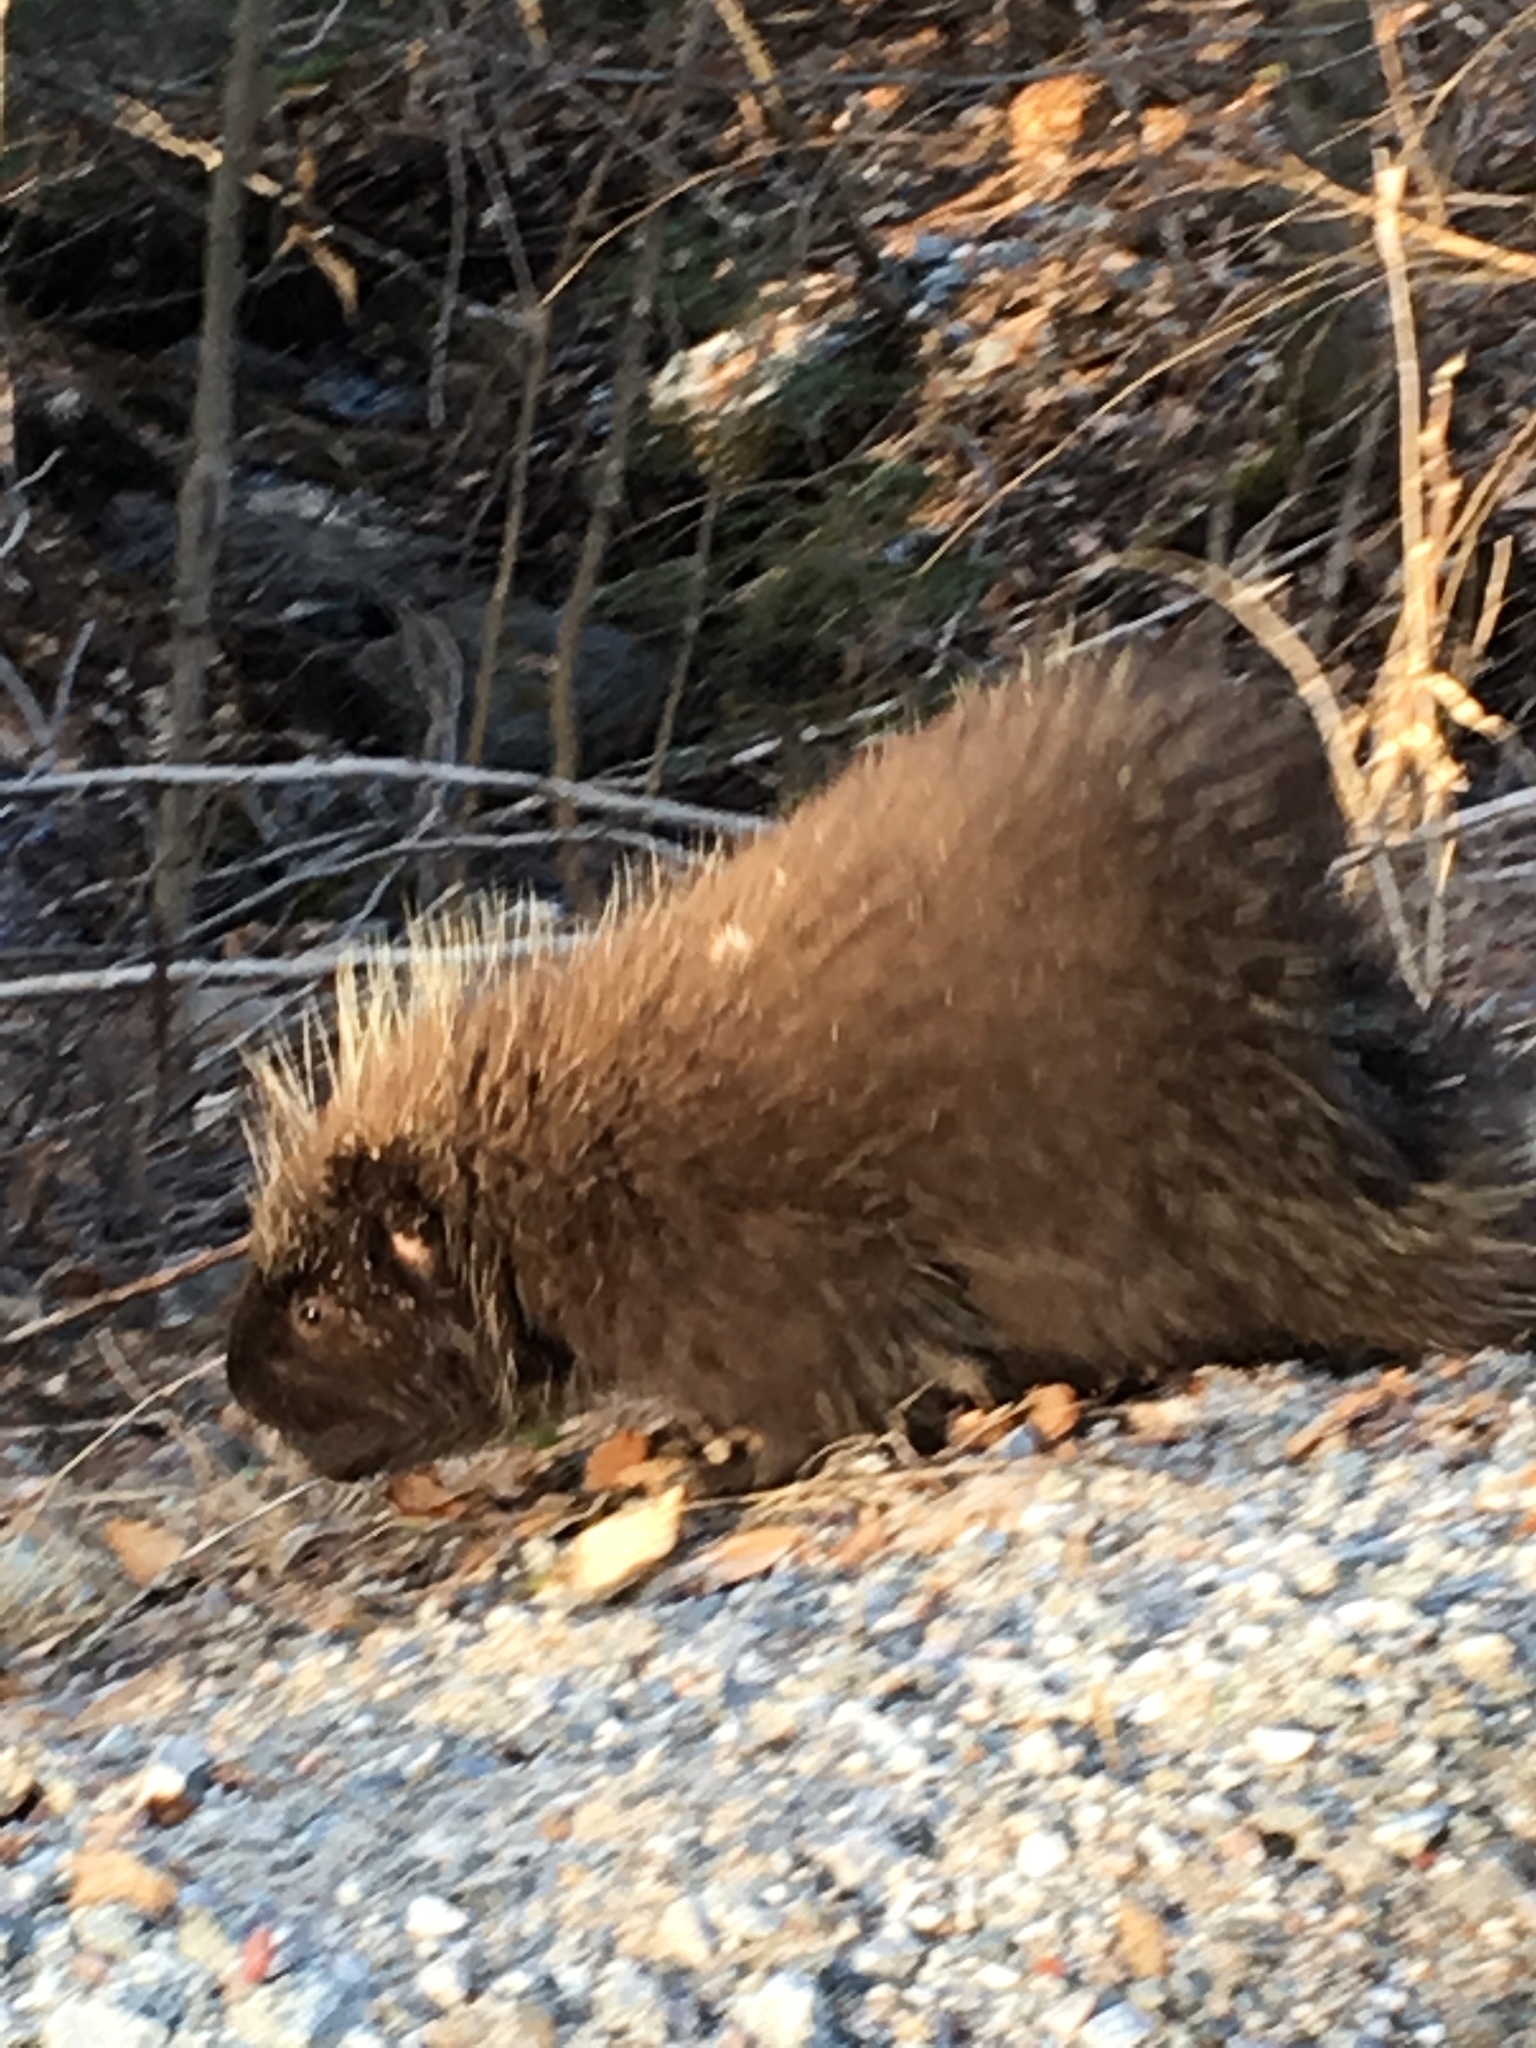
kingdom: Animalia
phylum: Chordata
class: Mammalia
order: Rodentia
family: Erethizontidae
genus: Erethizon
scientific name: Erethizon dorsatus
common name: North american porcupine
